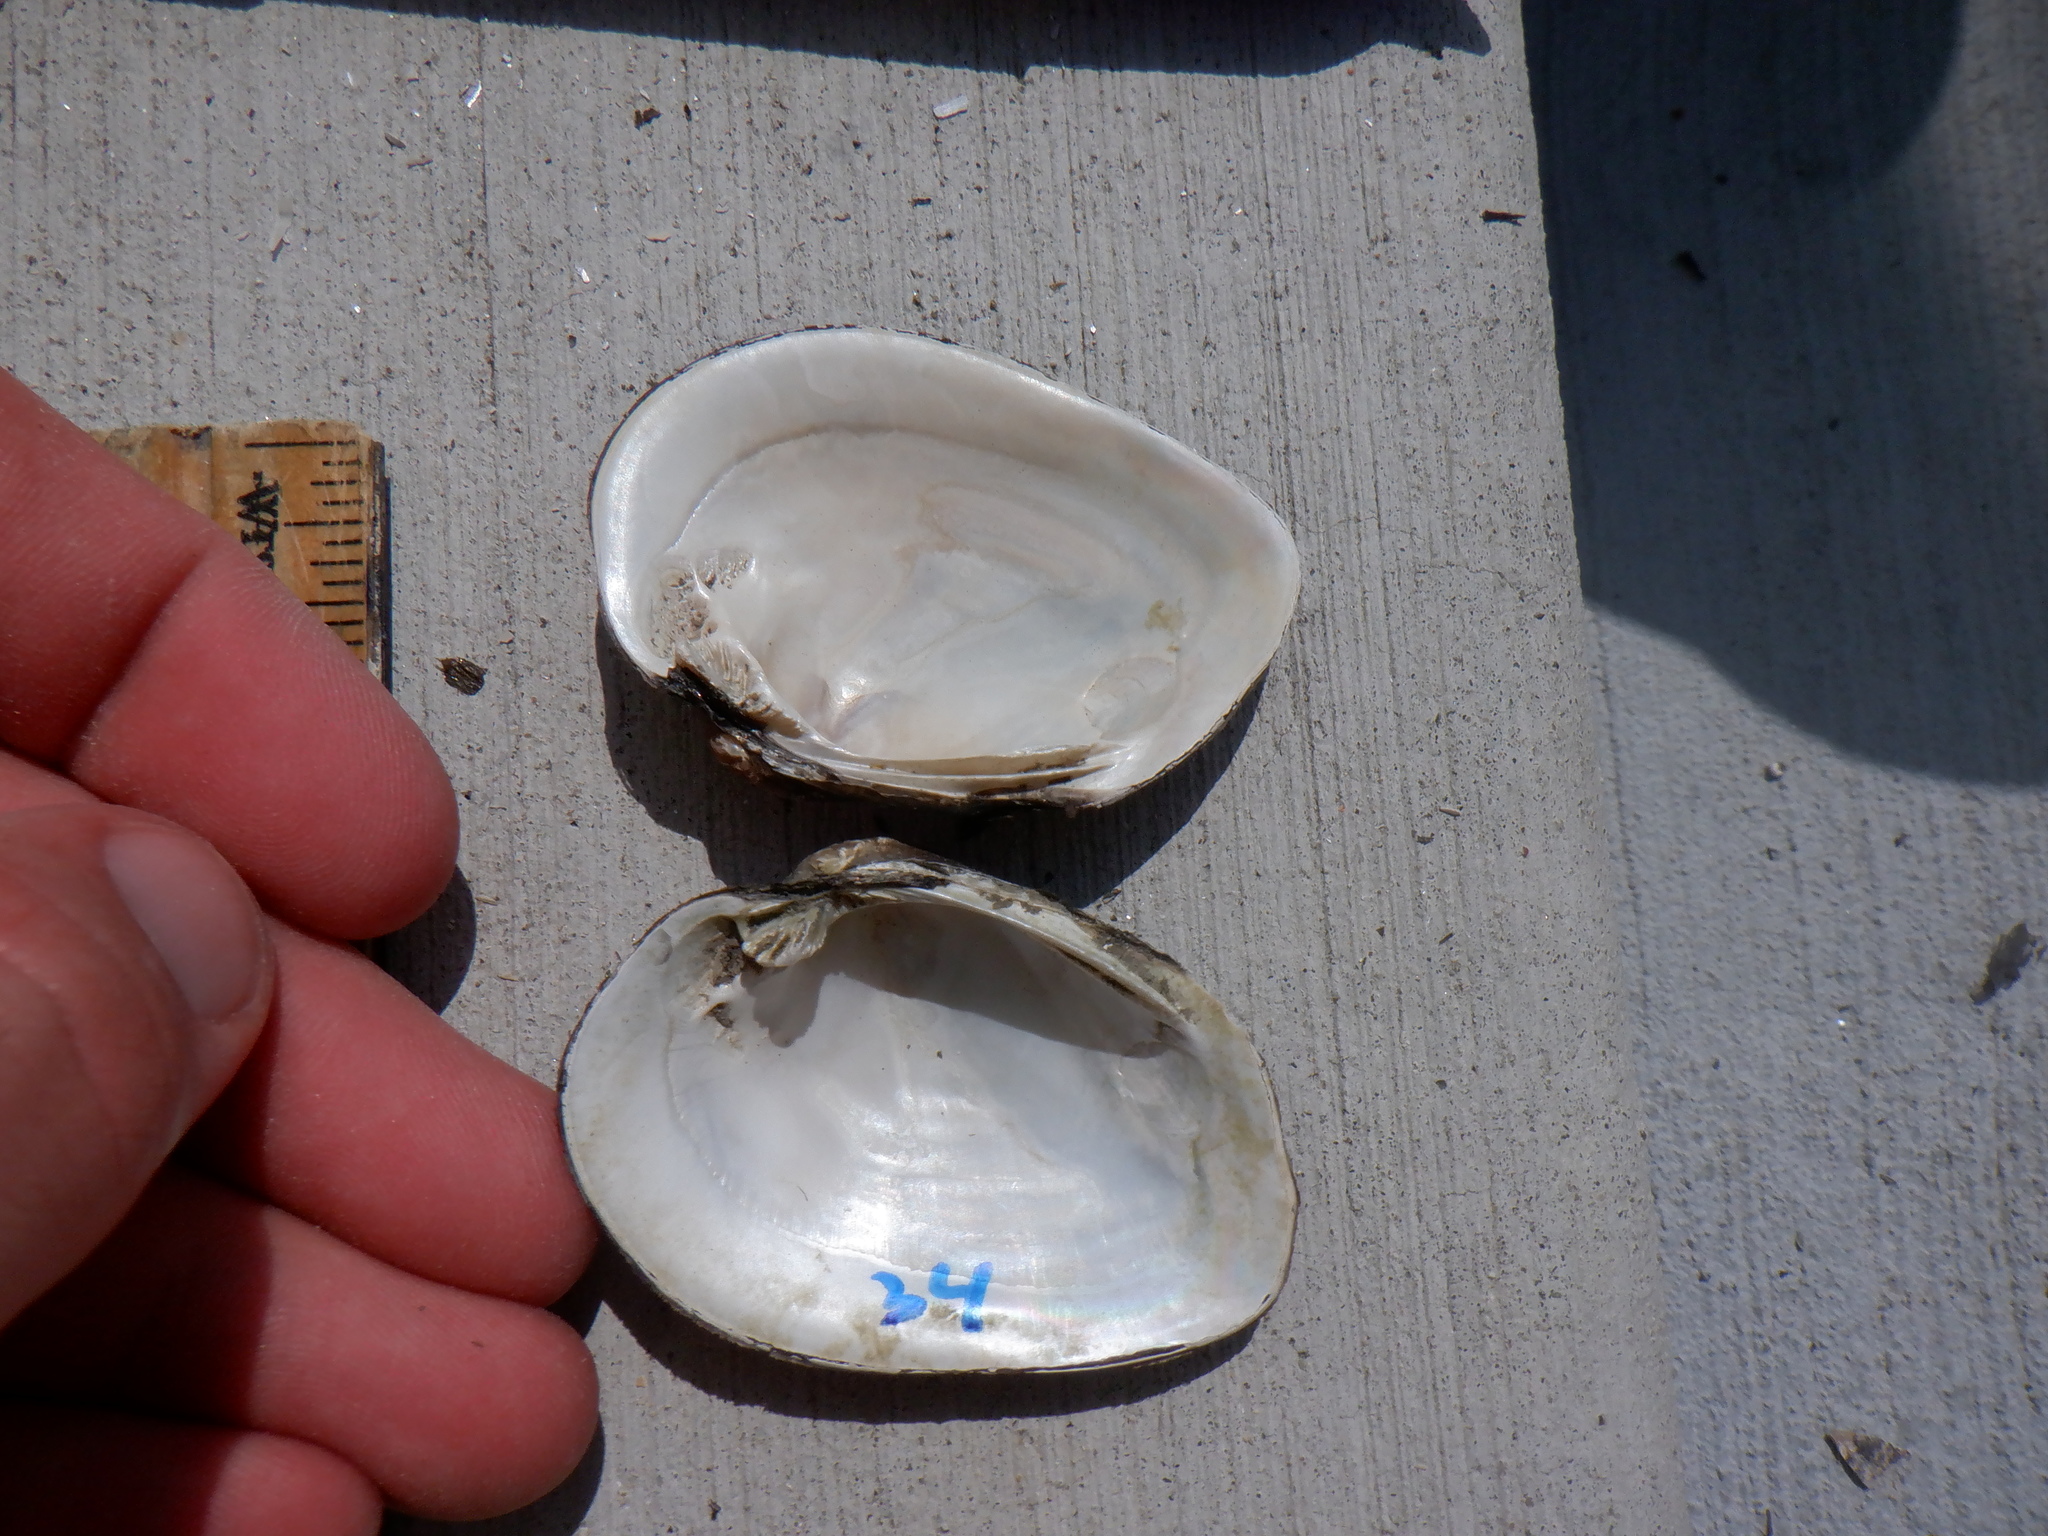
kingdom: Animalia
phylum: Mollusca
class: Bivalvia
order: Unionida
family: Unionidae
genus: Fusconaia
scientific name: Fusconaia flava
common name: Wabash pigtoe
